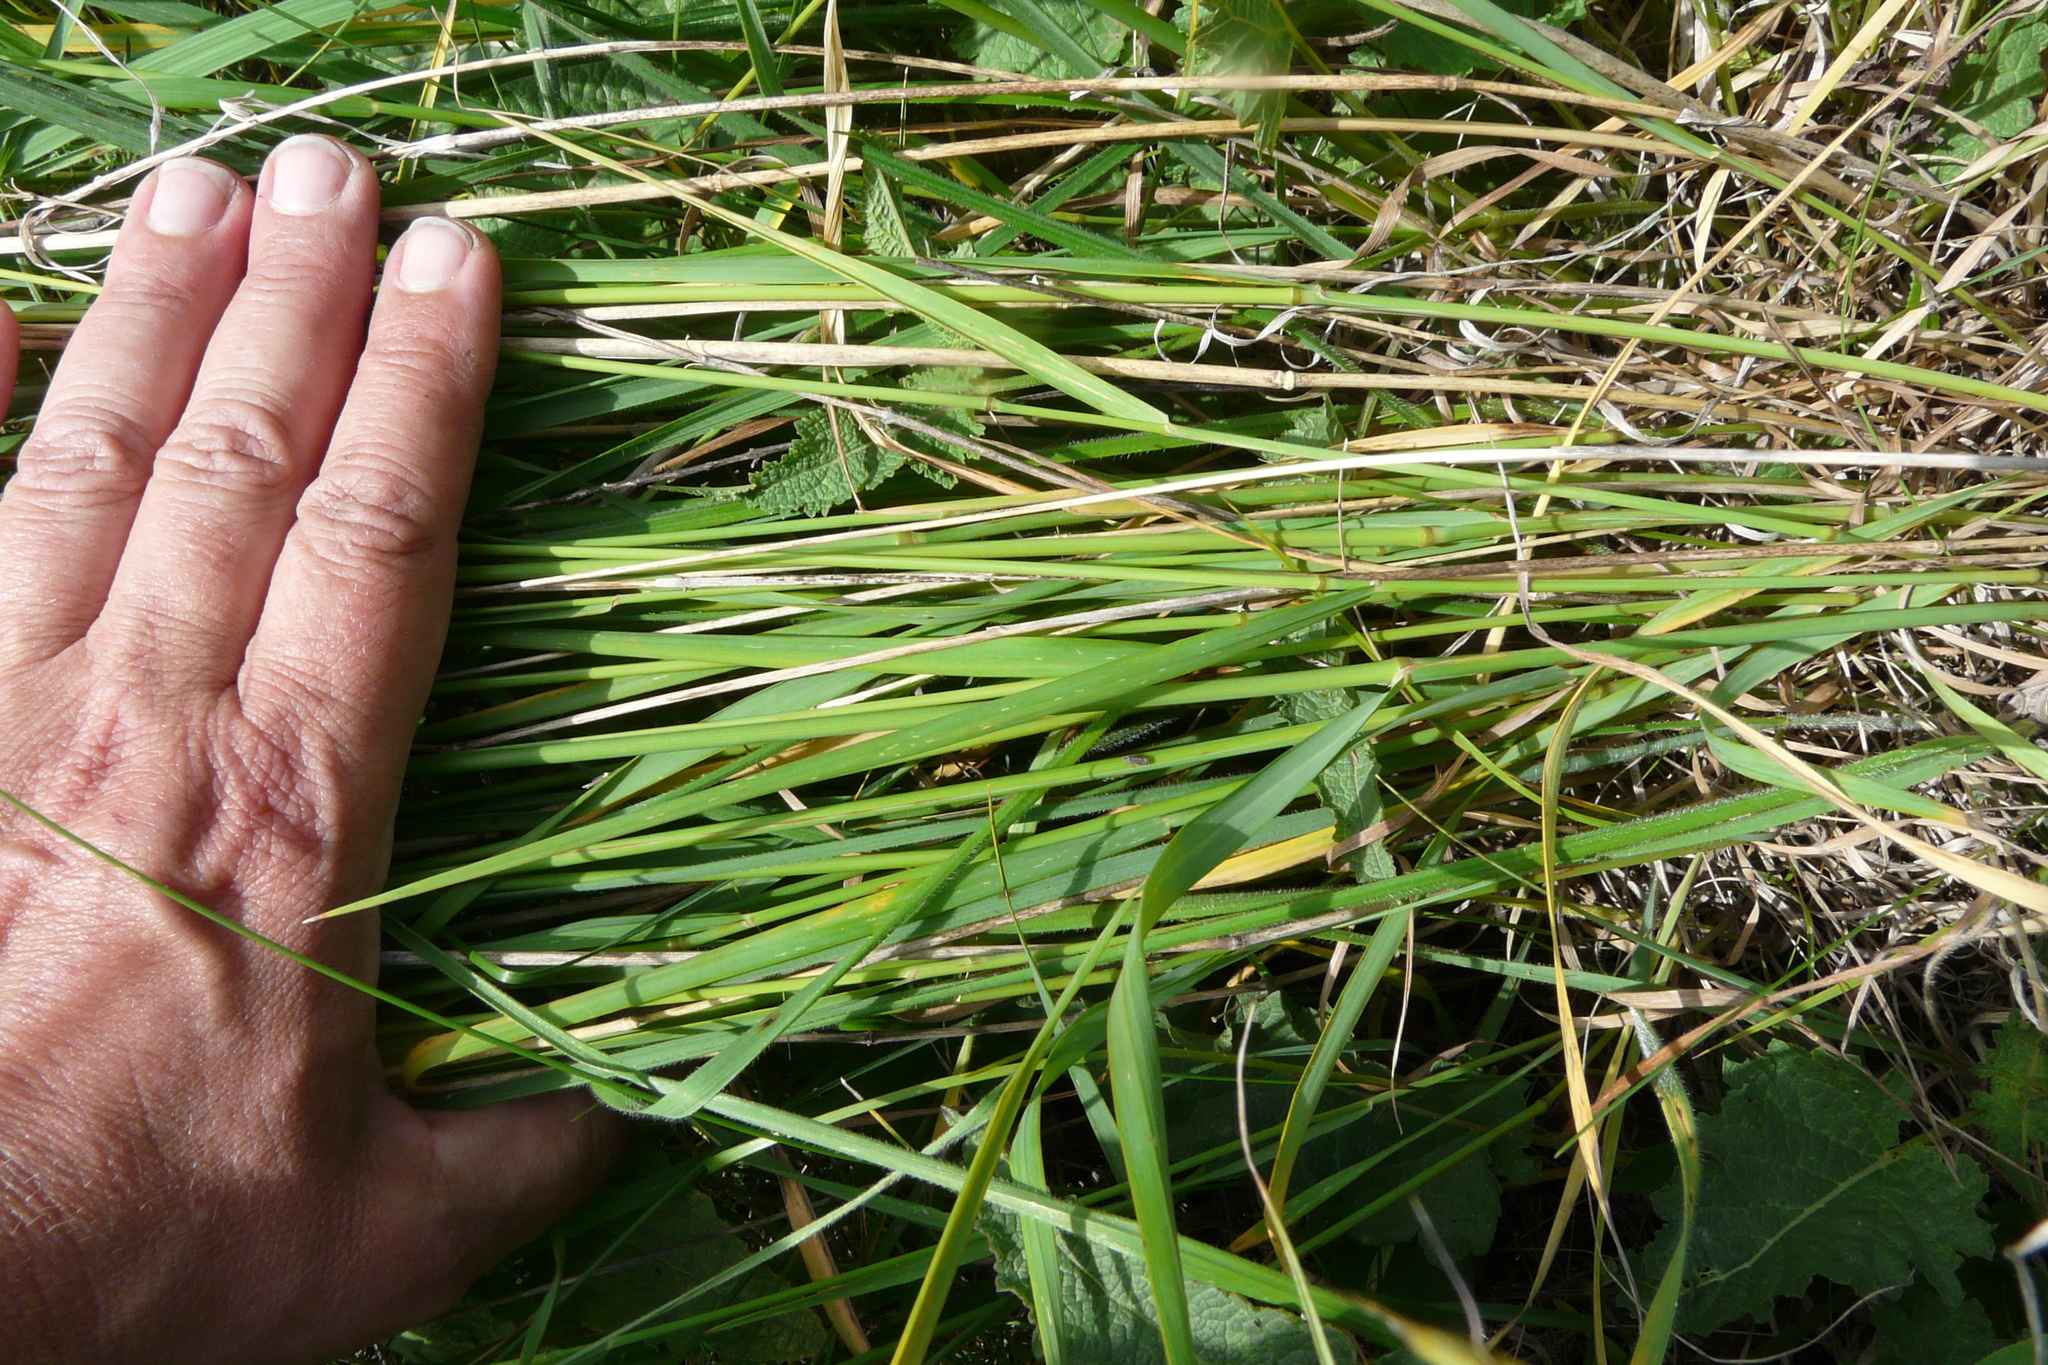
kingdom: Plantae
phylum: Tracheophyta
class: Liliopsida
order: Poales
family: Poaceae
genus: Arrhenatherum
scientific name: Arrhenatherum elatius
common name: Tall oatgrass
